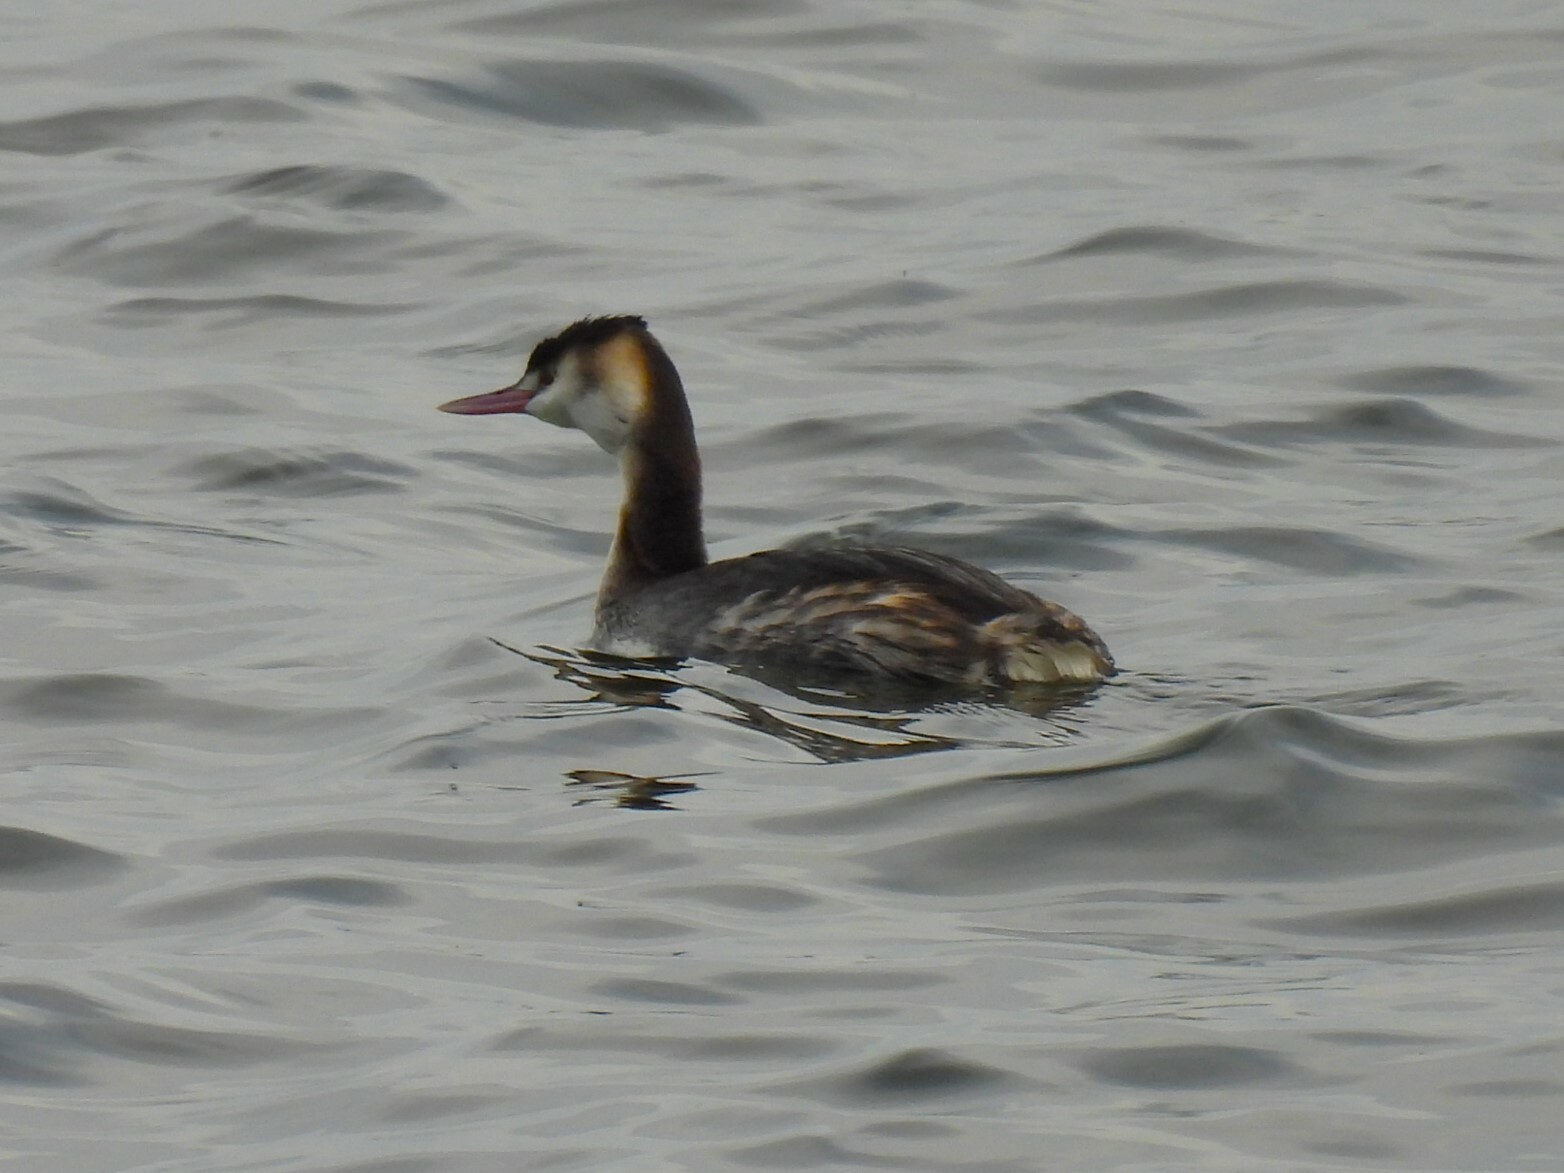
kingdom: Animalia
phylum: Chordata
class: Aves
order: Podicipediformes
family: Podicipedidae
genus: Podiceps
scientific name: Podiceps cristatus
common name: Great crested grebe
